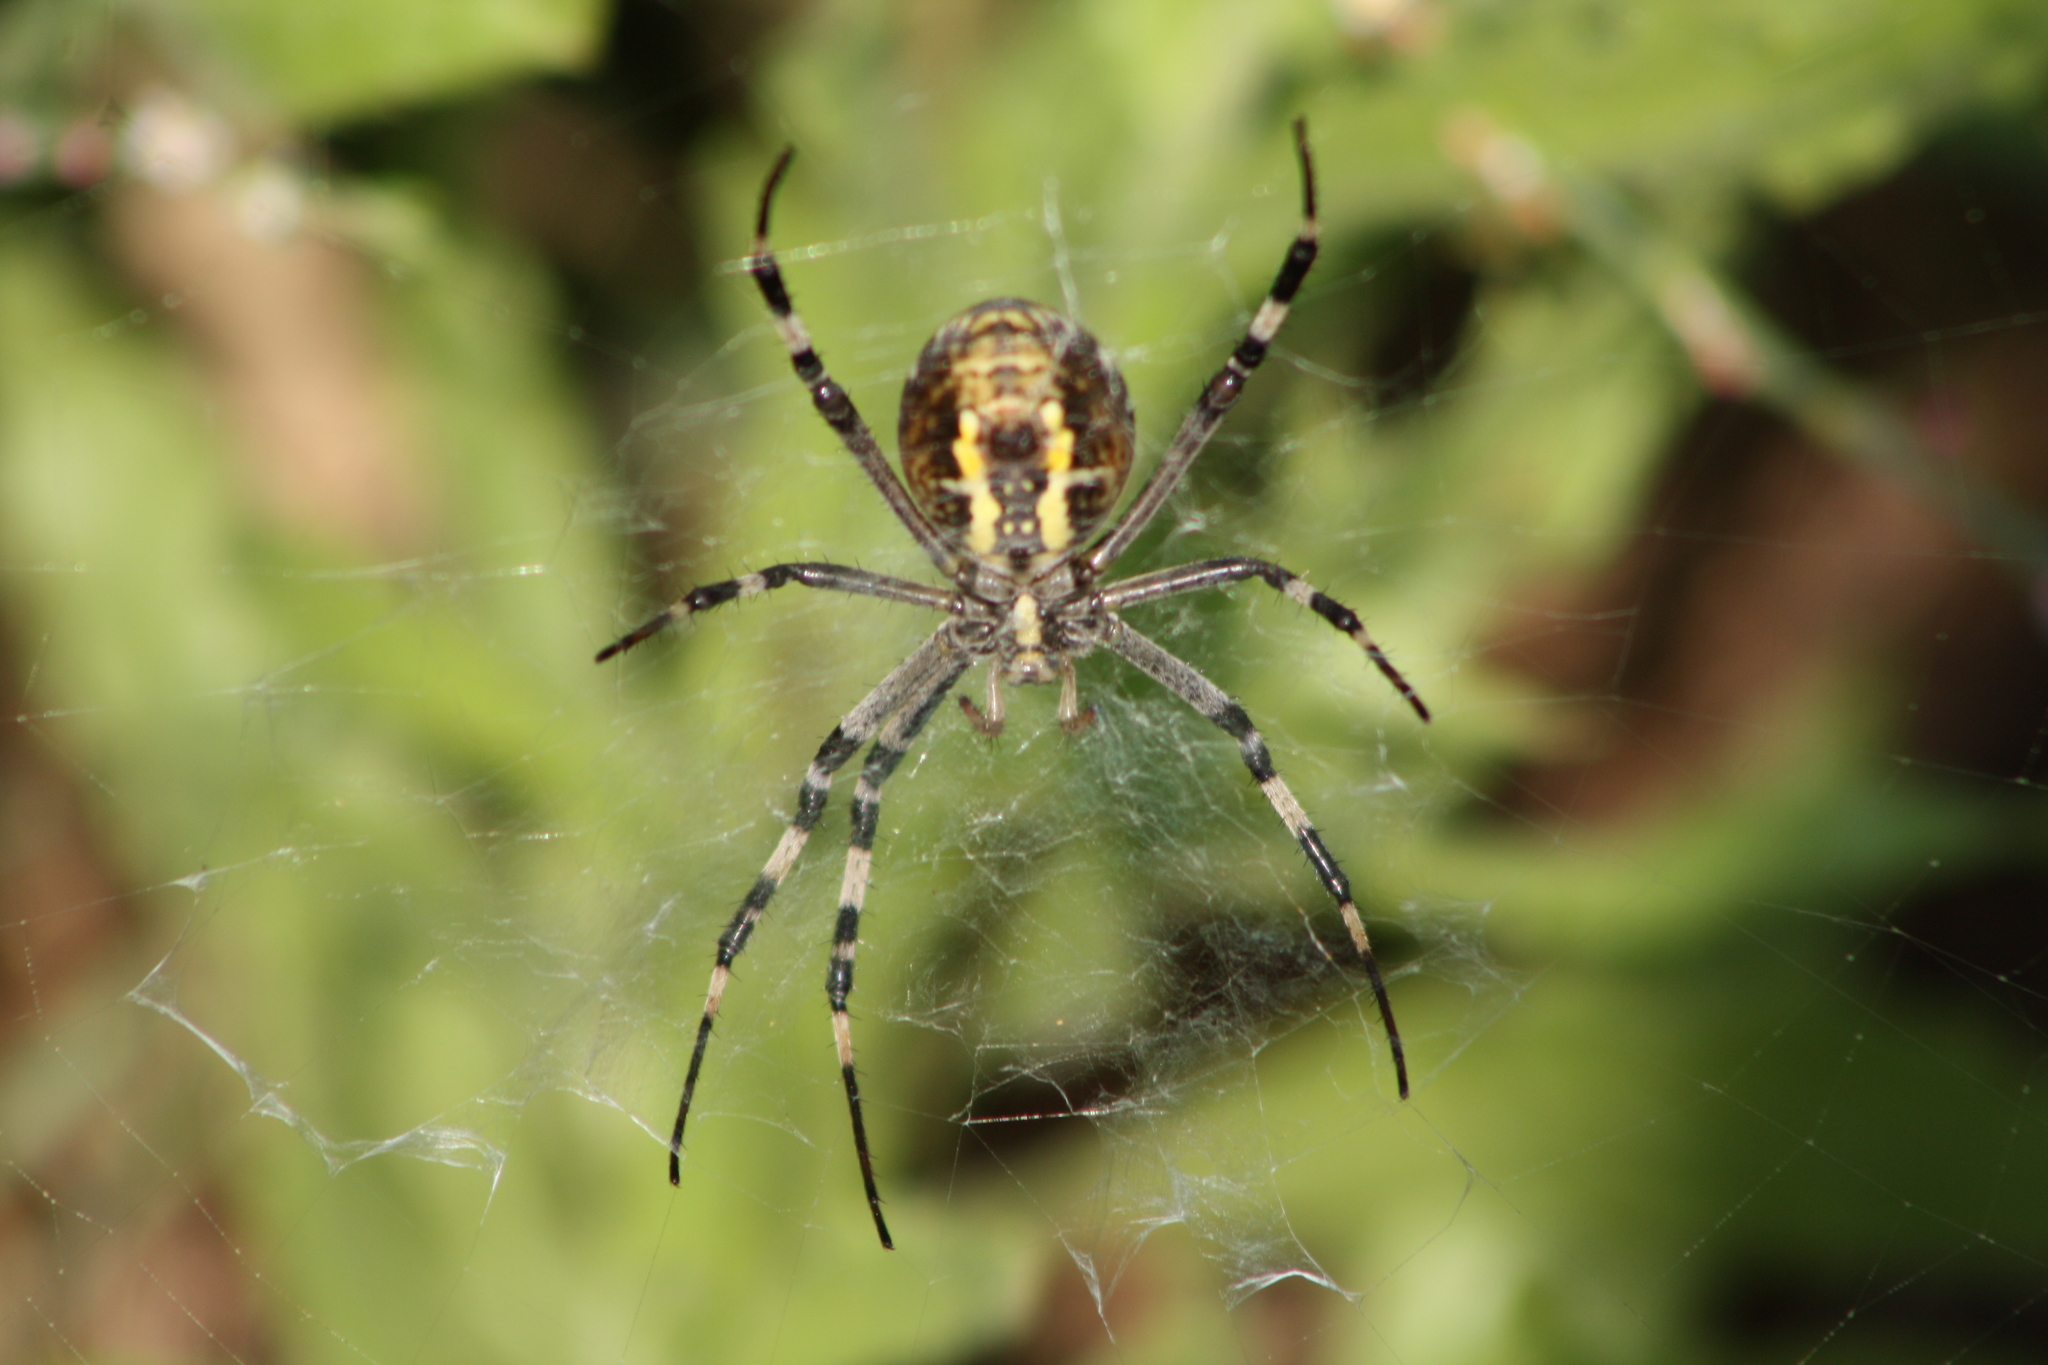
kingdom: Animalia
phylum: Arthropoda
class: Arachnida
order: Araneae
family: Araneidae
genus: Argiope
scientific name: Argiope bruennichi
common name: Wasp spider
